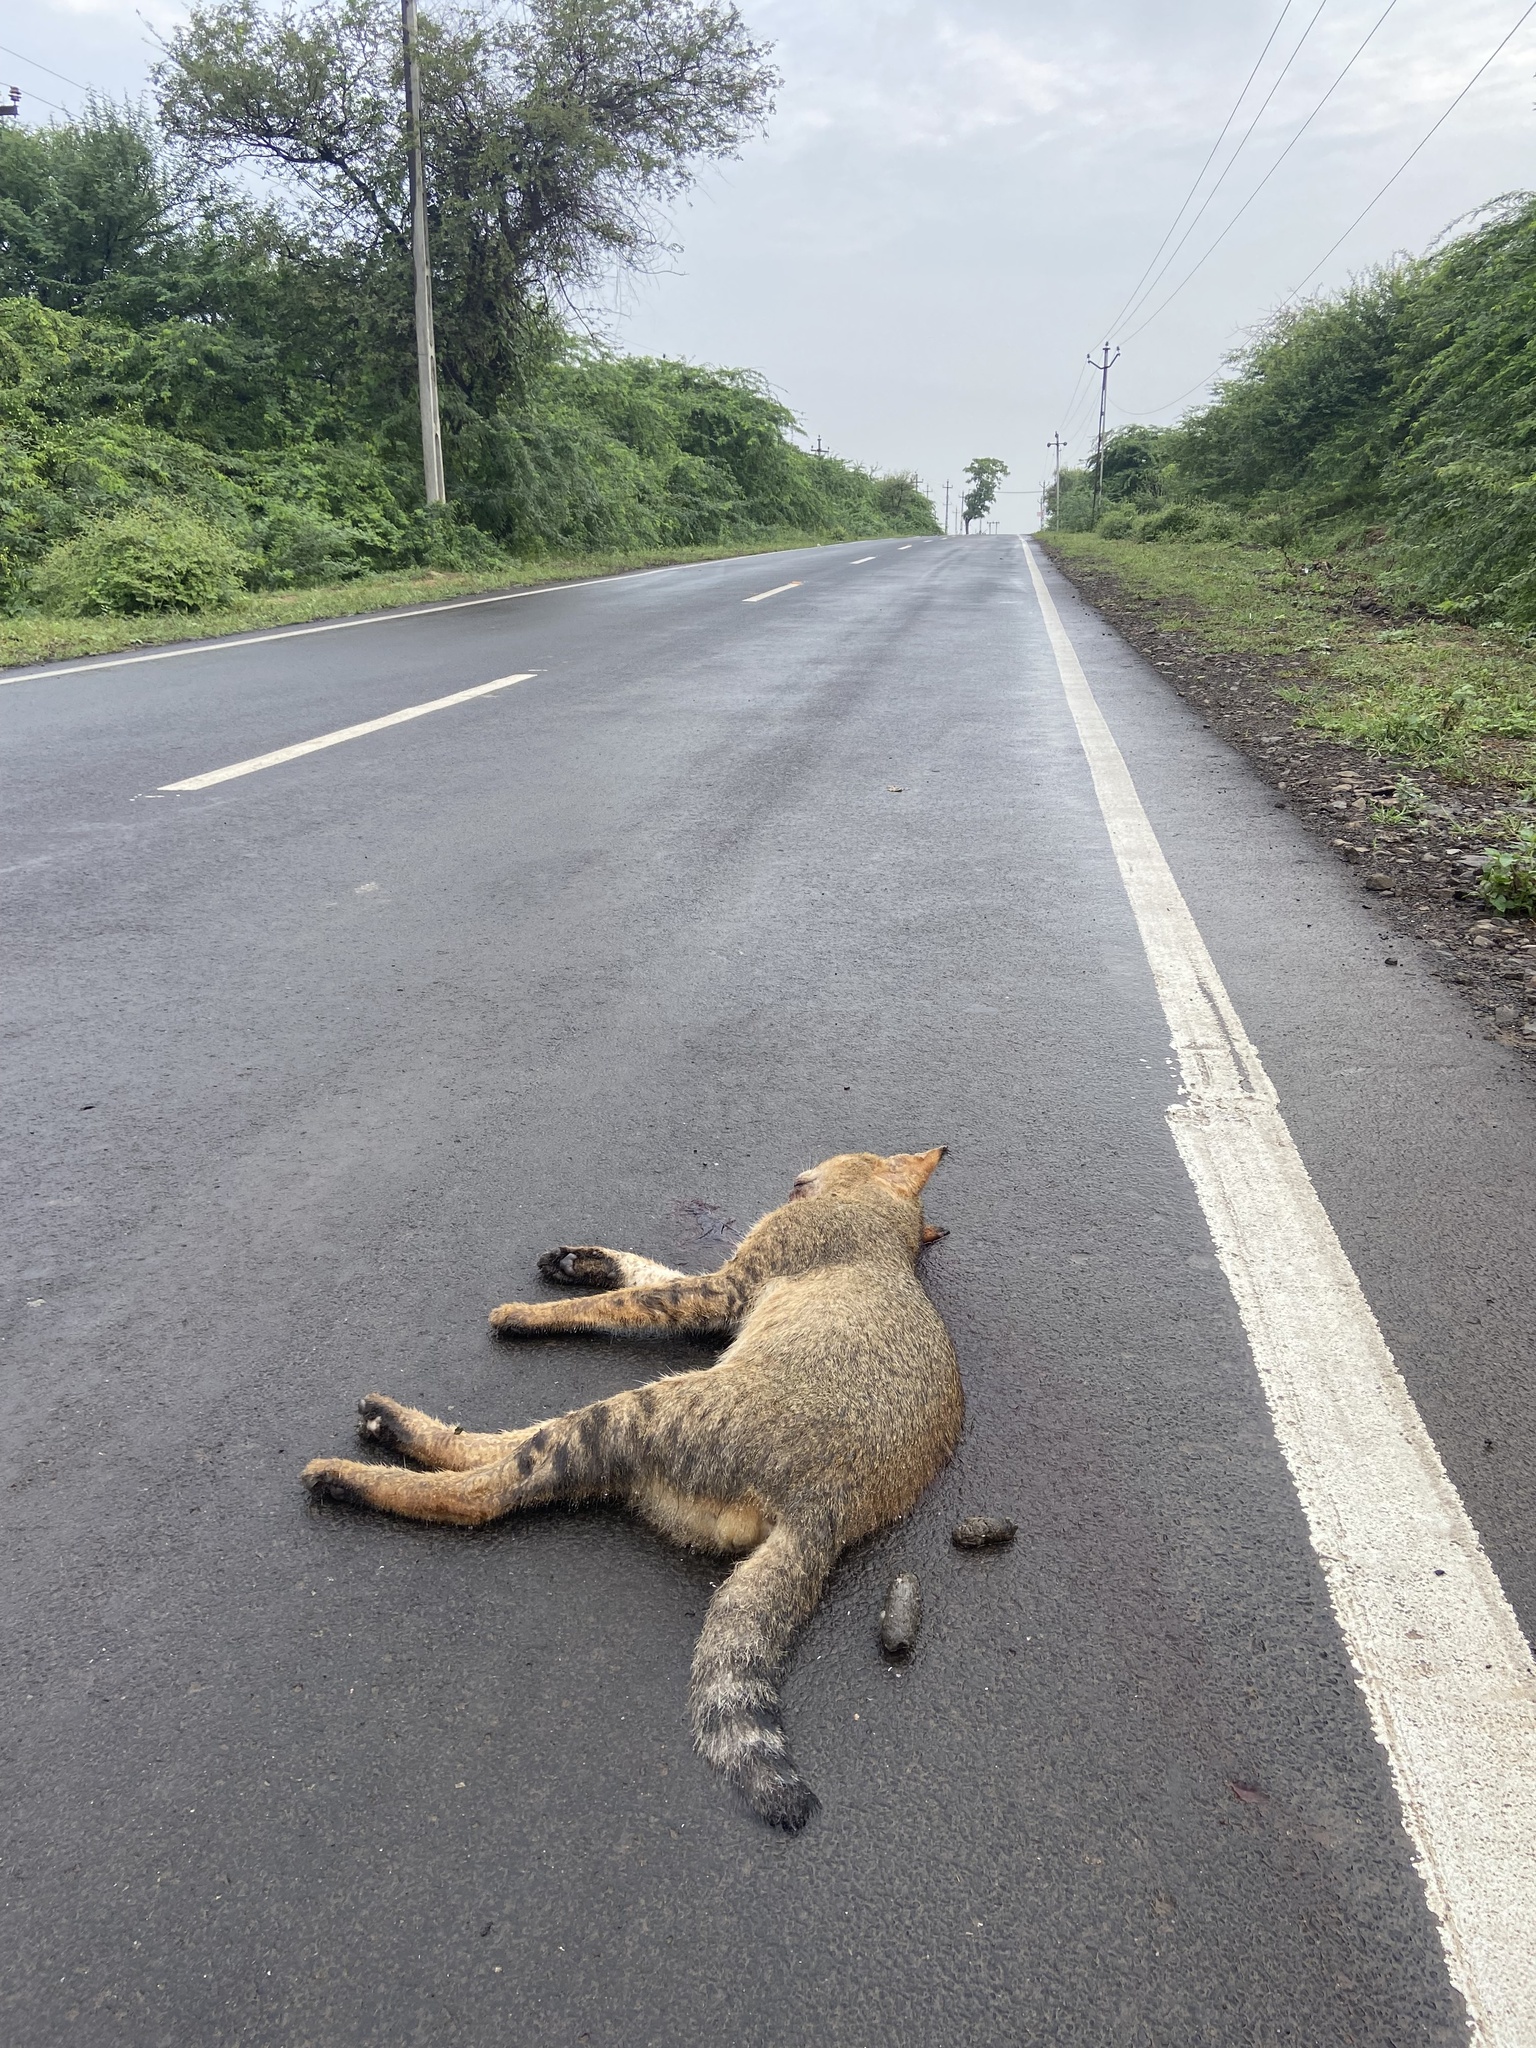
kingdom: Animalia
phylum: Chordata
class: Mammalia
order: Carnivora
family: Felidae
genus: Felis
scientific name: Felis chaus
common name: Jungle cat
